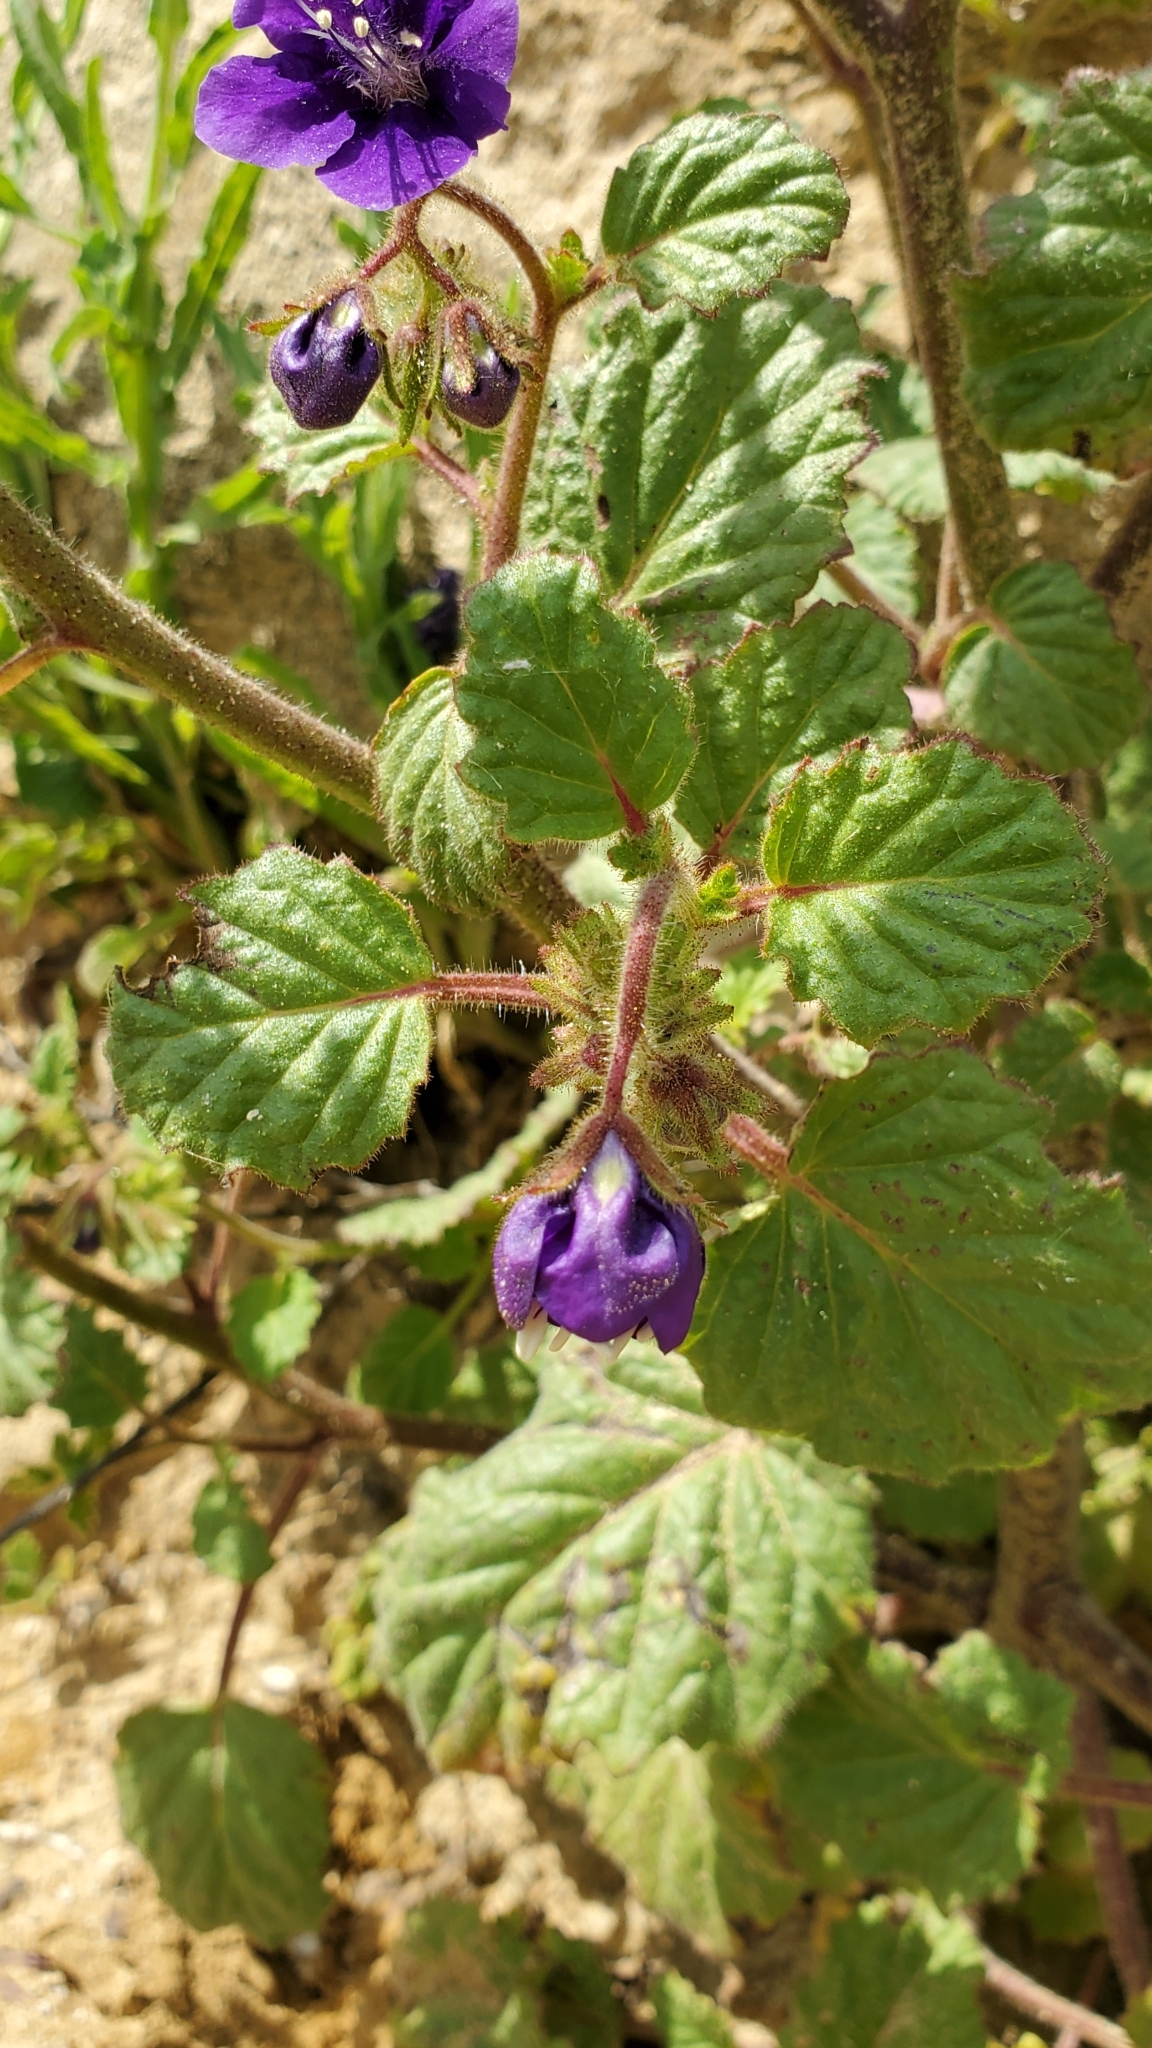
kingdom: Plantae
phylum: Tracheophyta
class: Magnoliopsida
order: Boraginales
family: Hydrophyllaceae
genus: Phacelia
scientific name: Phacelia parryi
